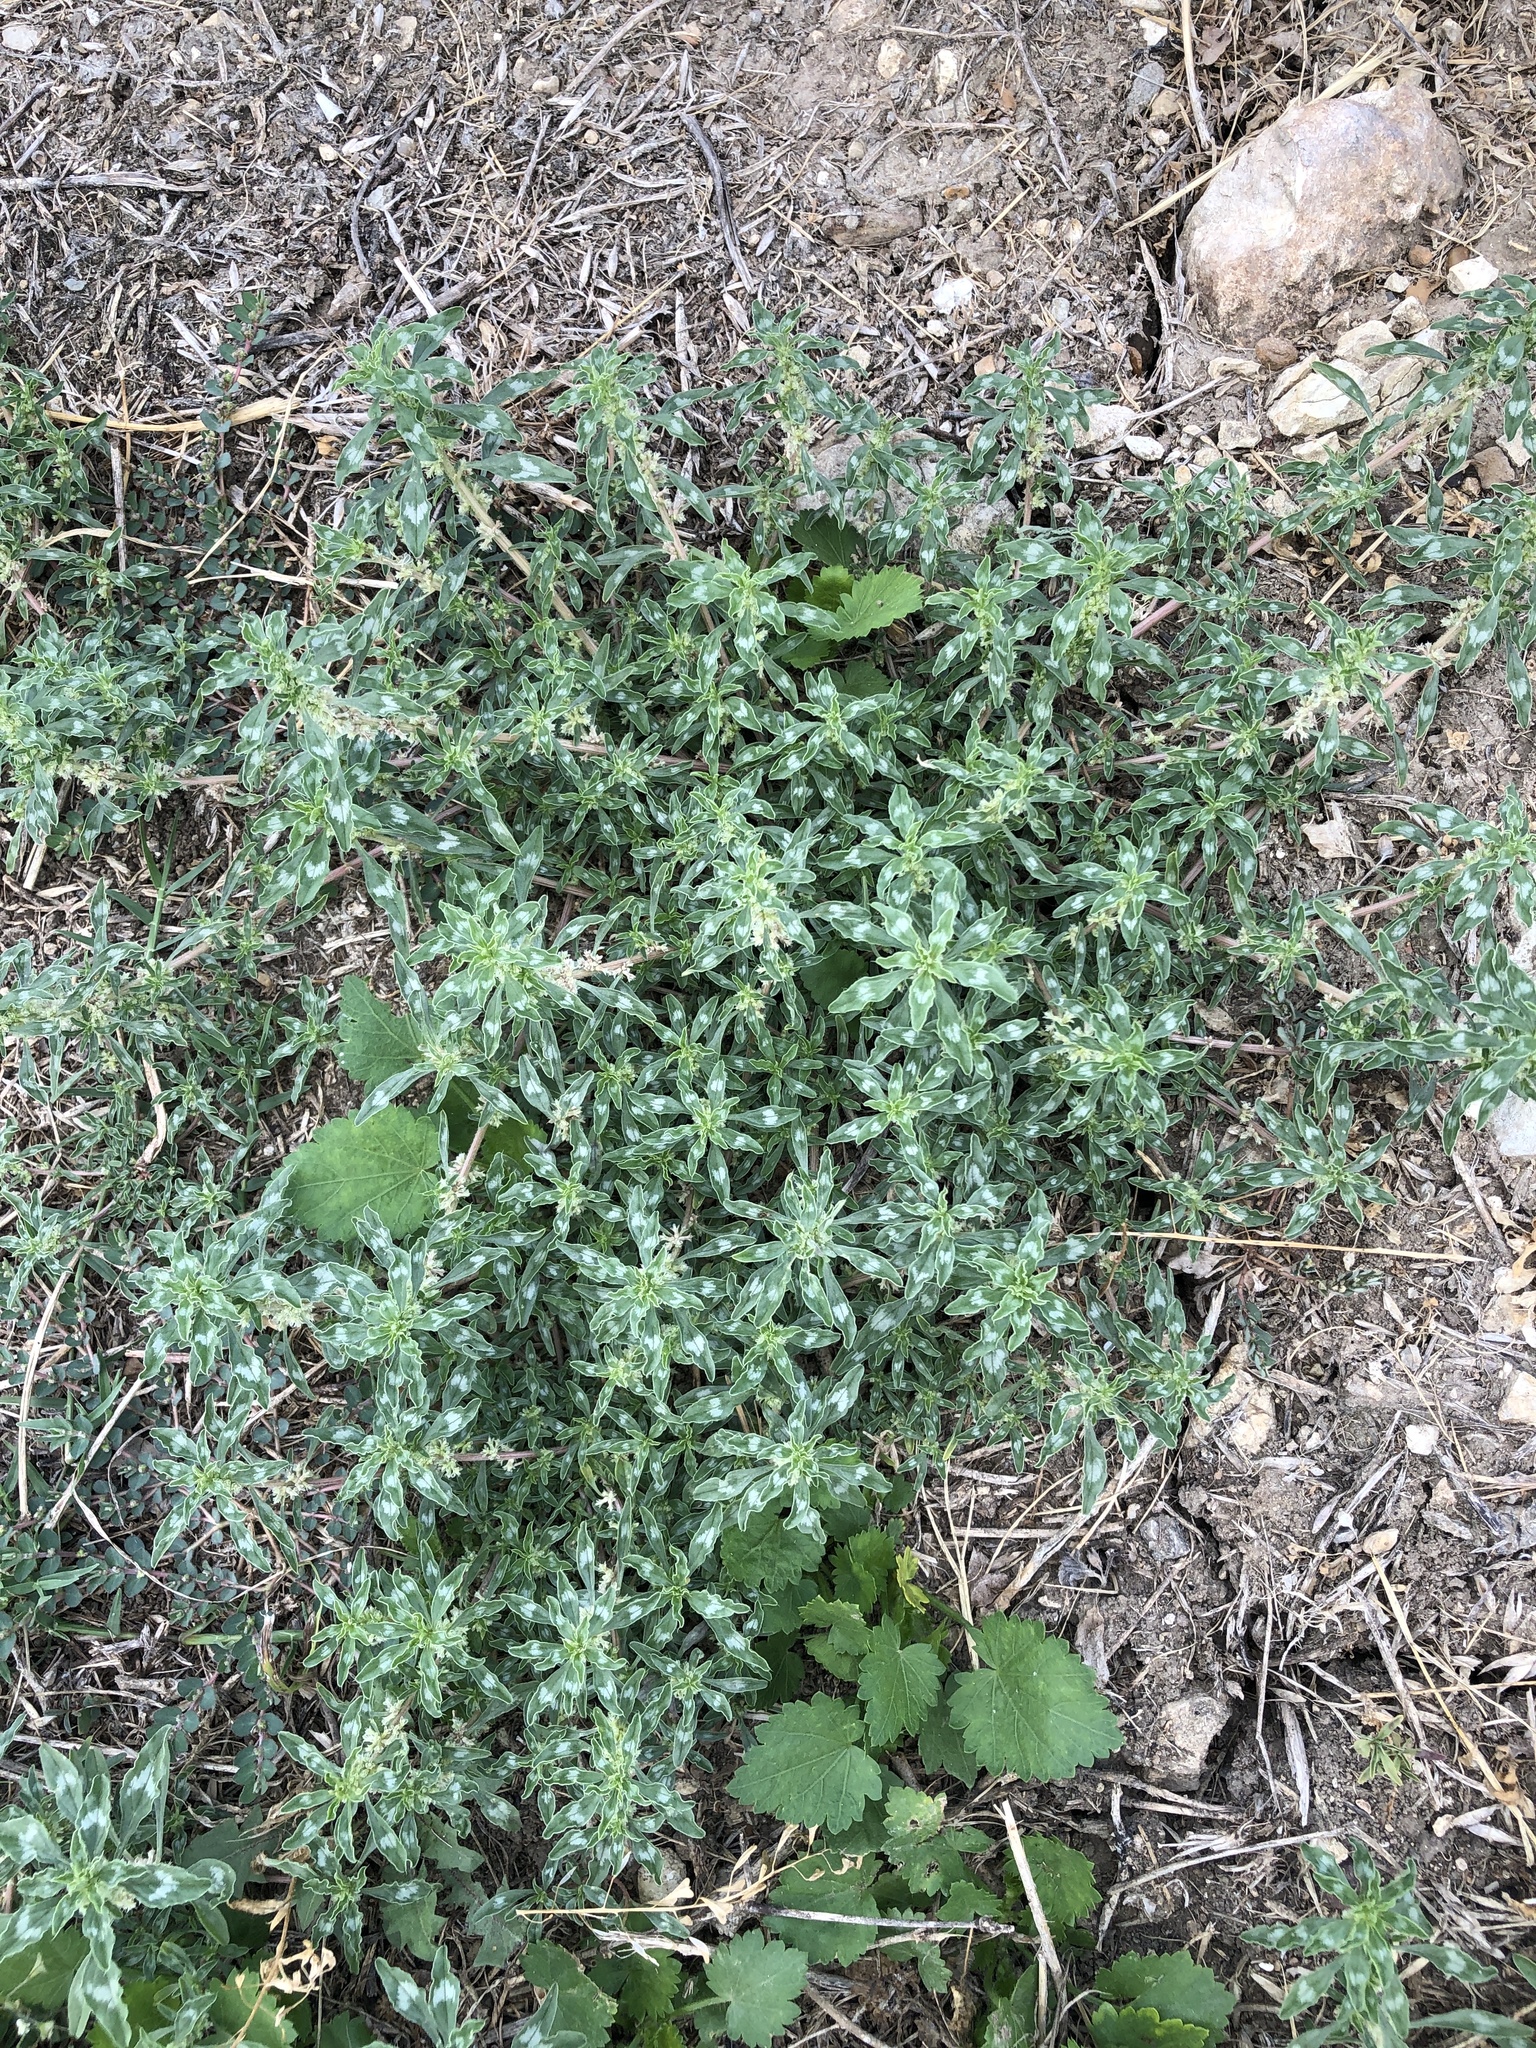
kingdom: Plantae
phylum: Tracheophyta
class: Magnoliopsida
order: Caryophyllales
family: Amaranthaceae
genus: Amaranthus
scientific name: Amaranthus polygonoides
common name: Tropical amaranth
